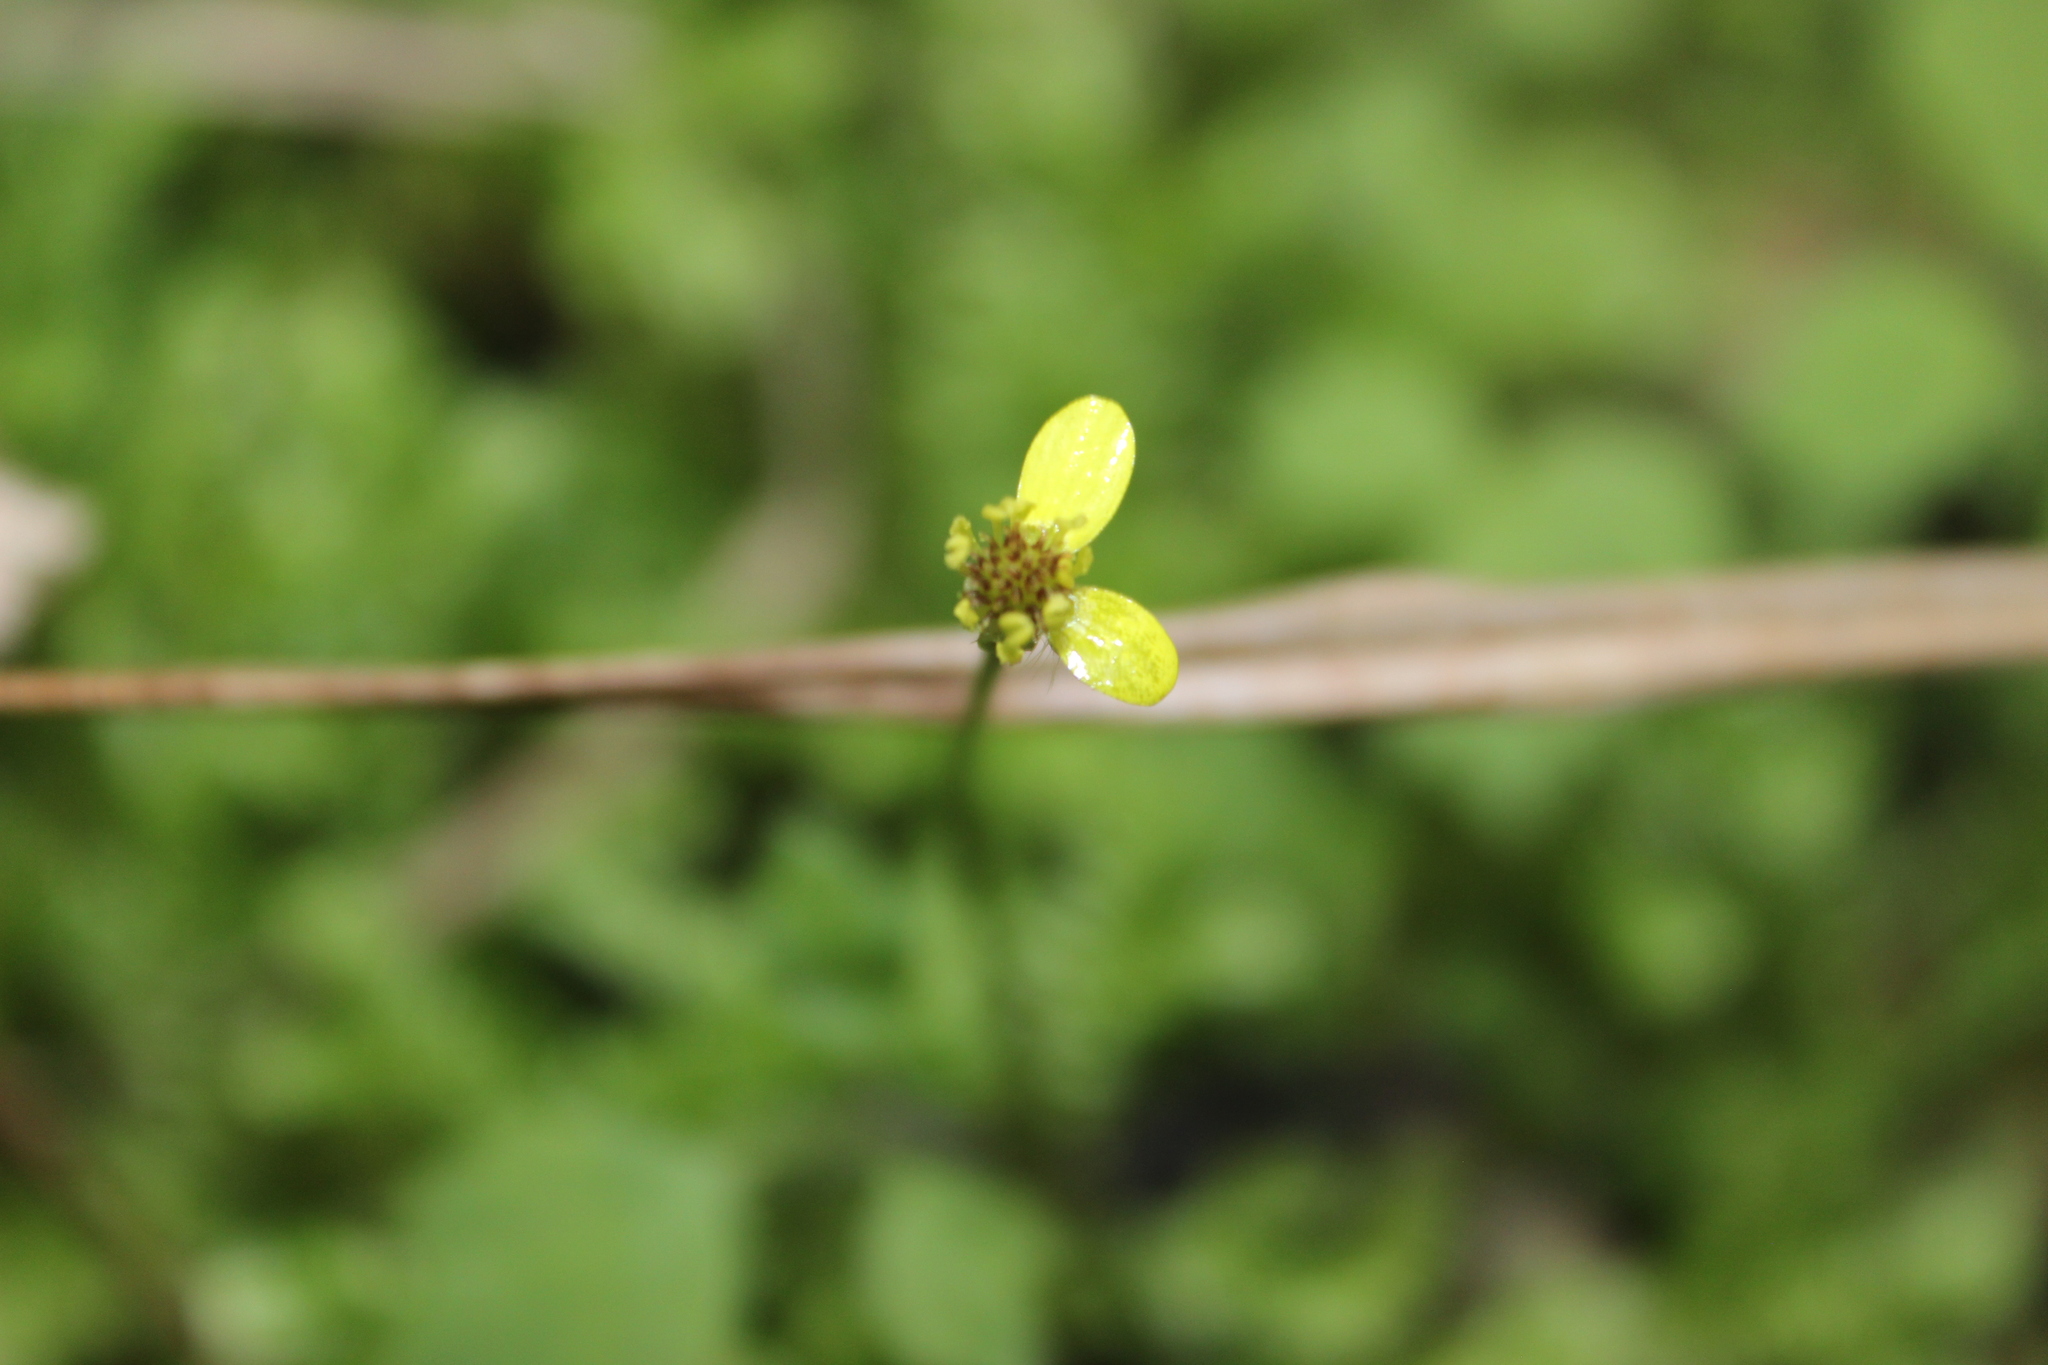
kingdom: Plantae
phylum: Tracheophyta
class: Magnoliopsida
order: Ranunculales
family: Ranunculaceae
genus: Ranunculus
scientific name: Ranunculus reflexus
